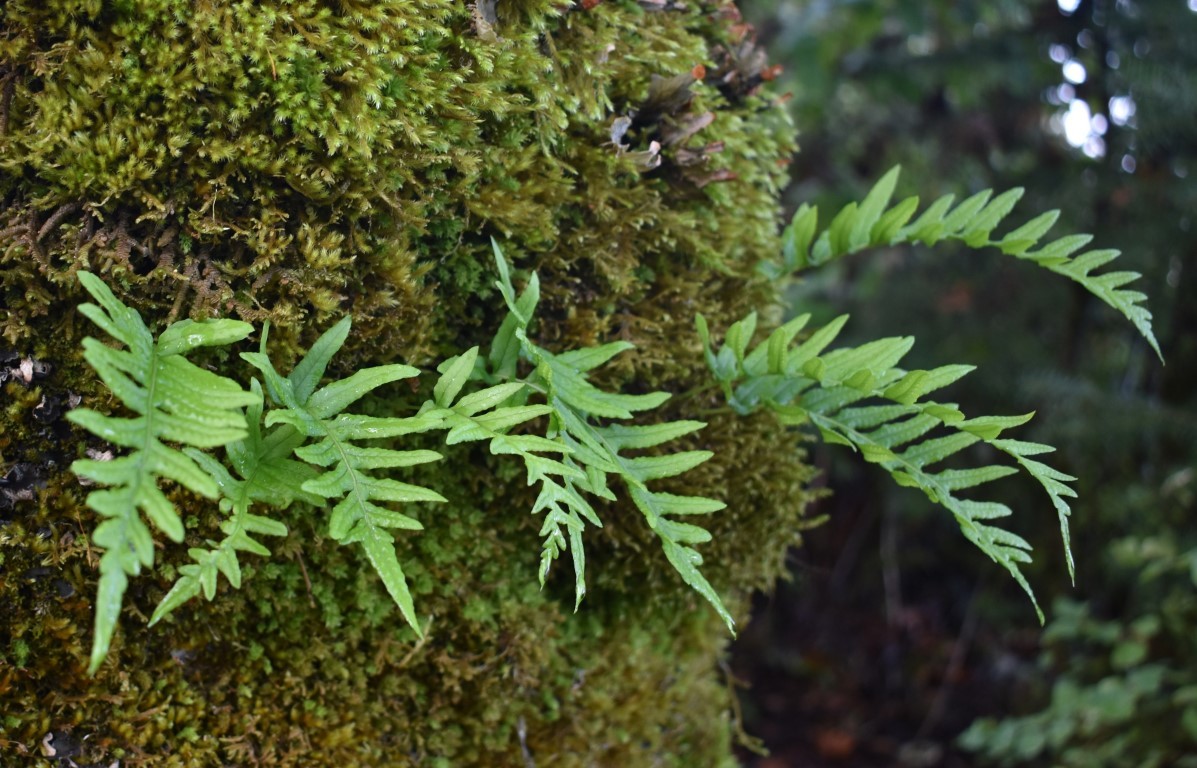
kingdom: Plantae
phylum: Tracheophyta
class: Polypodiopsida
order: Polypodiales
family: Polypodiaceae
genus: Polypodium
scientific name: Polypodium glycyrrhiza
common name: Licorice fern
